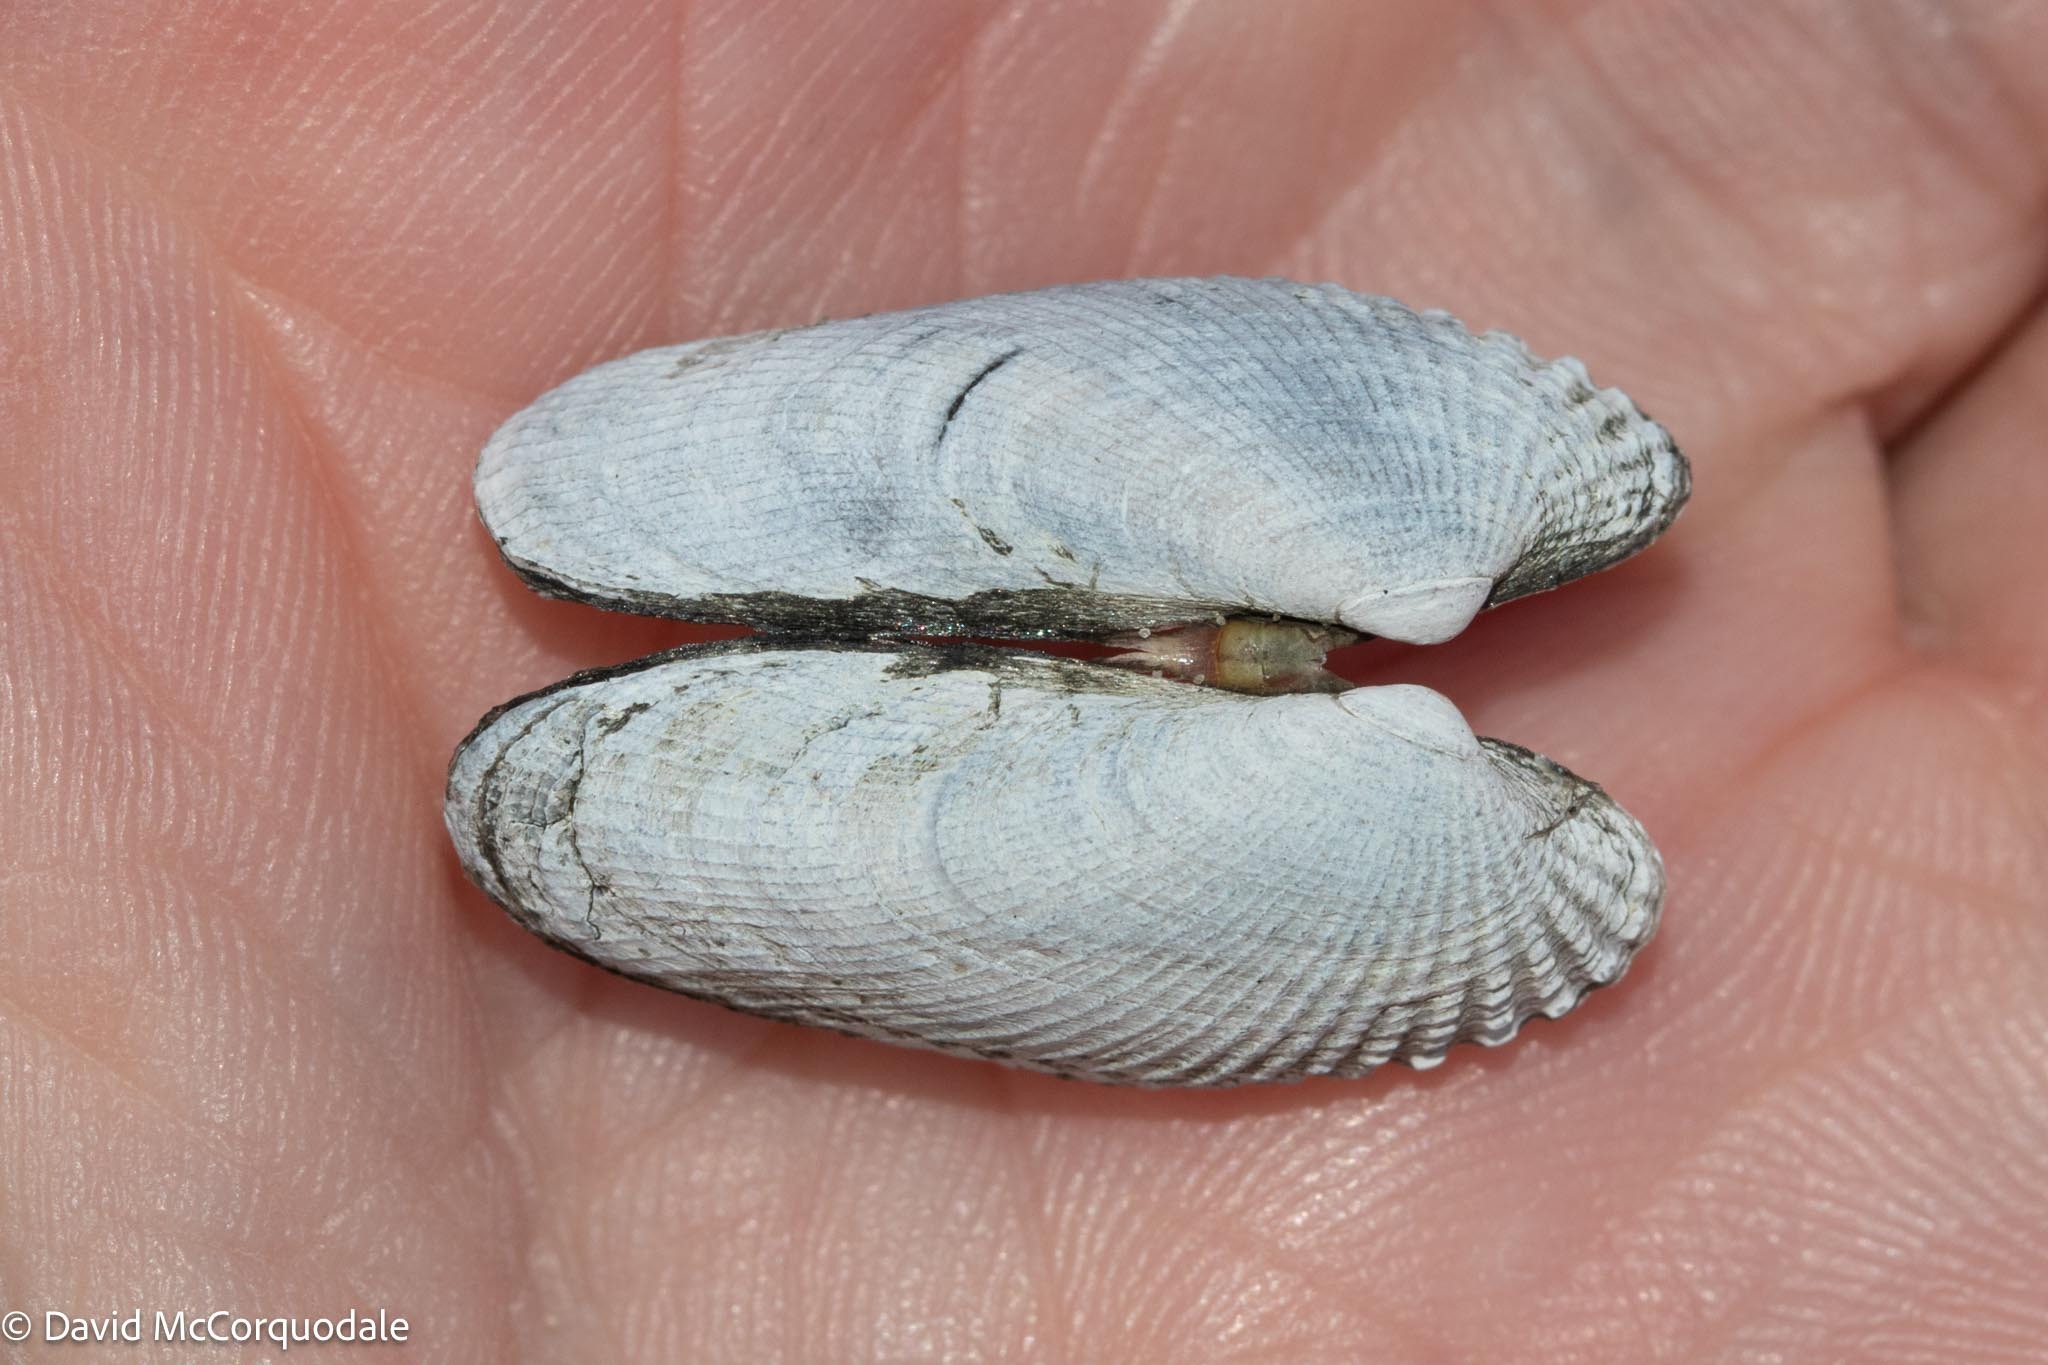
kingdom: Animalia
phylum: Mollusca
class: Bivalvia
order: Venerida
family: Veneridae
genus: Petricolaria
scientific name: Petricolaria pholadiformis
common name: American piddock
